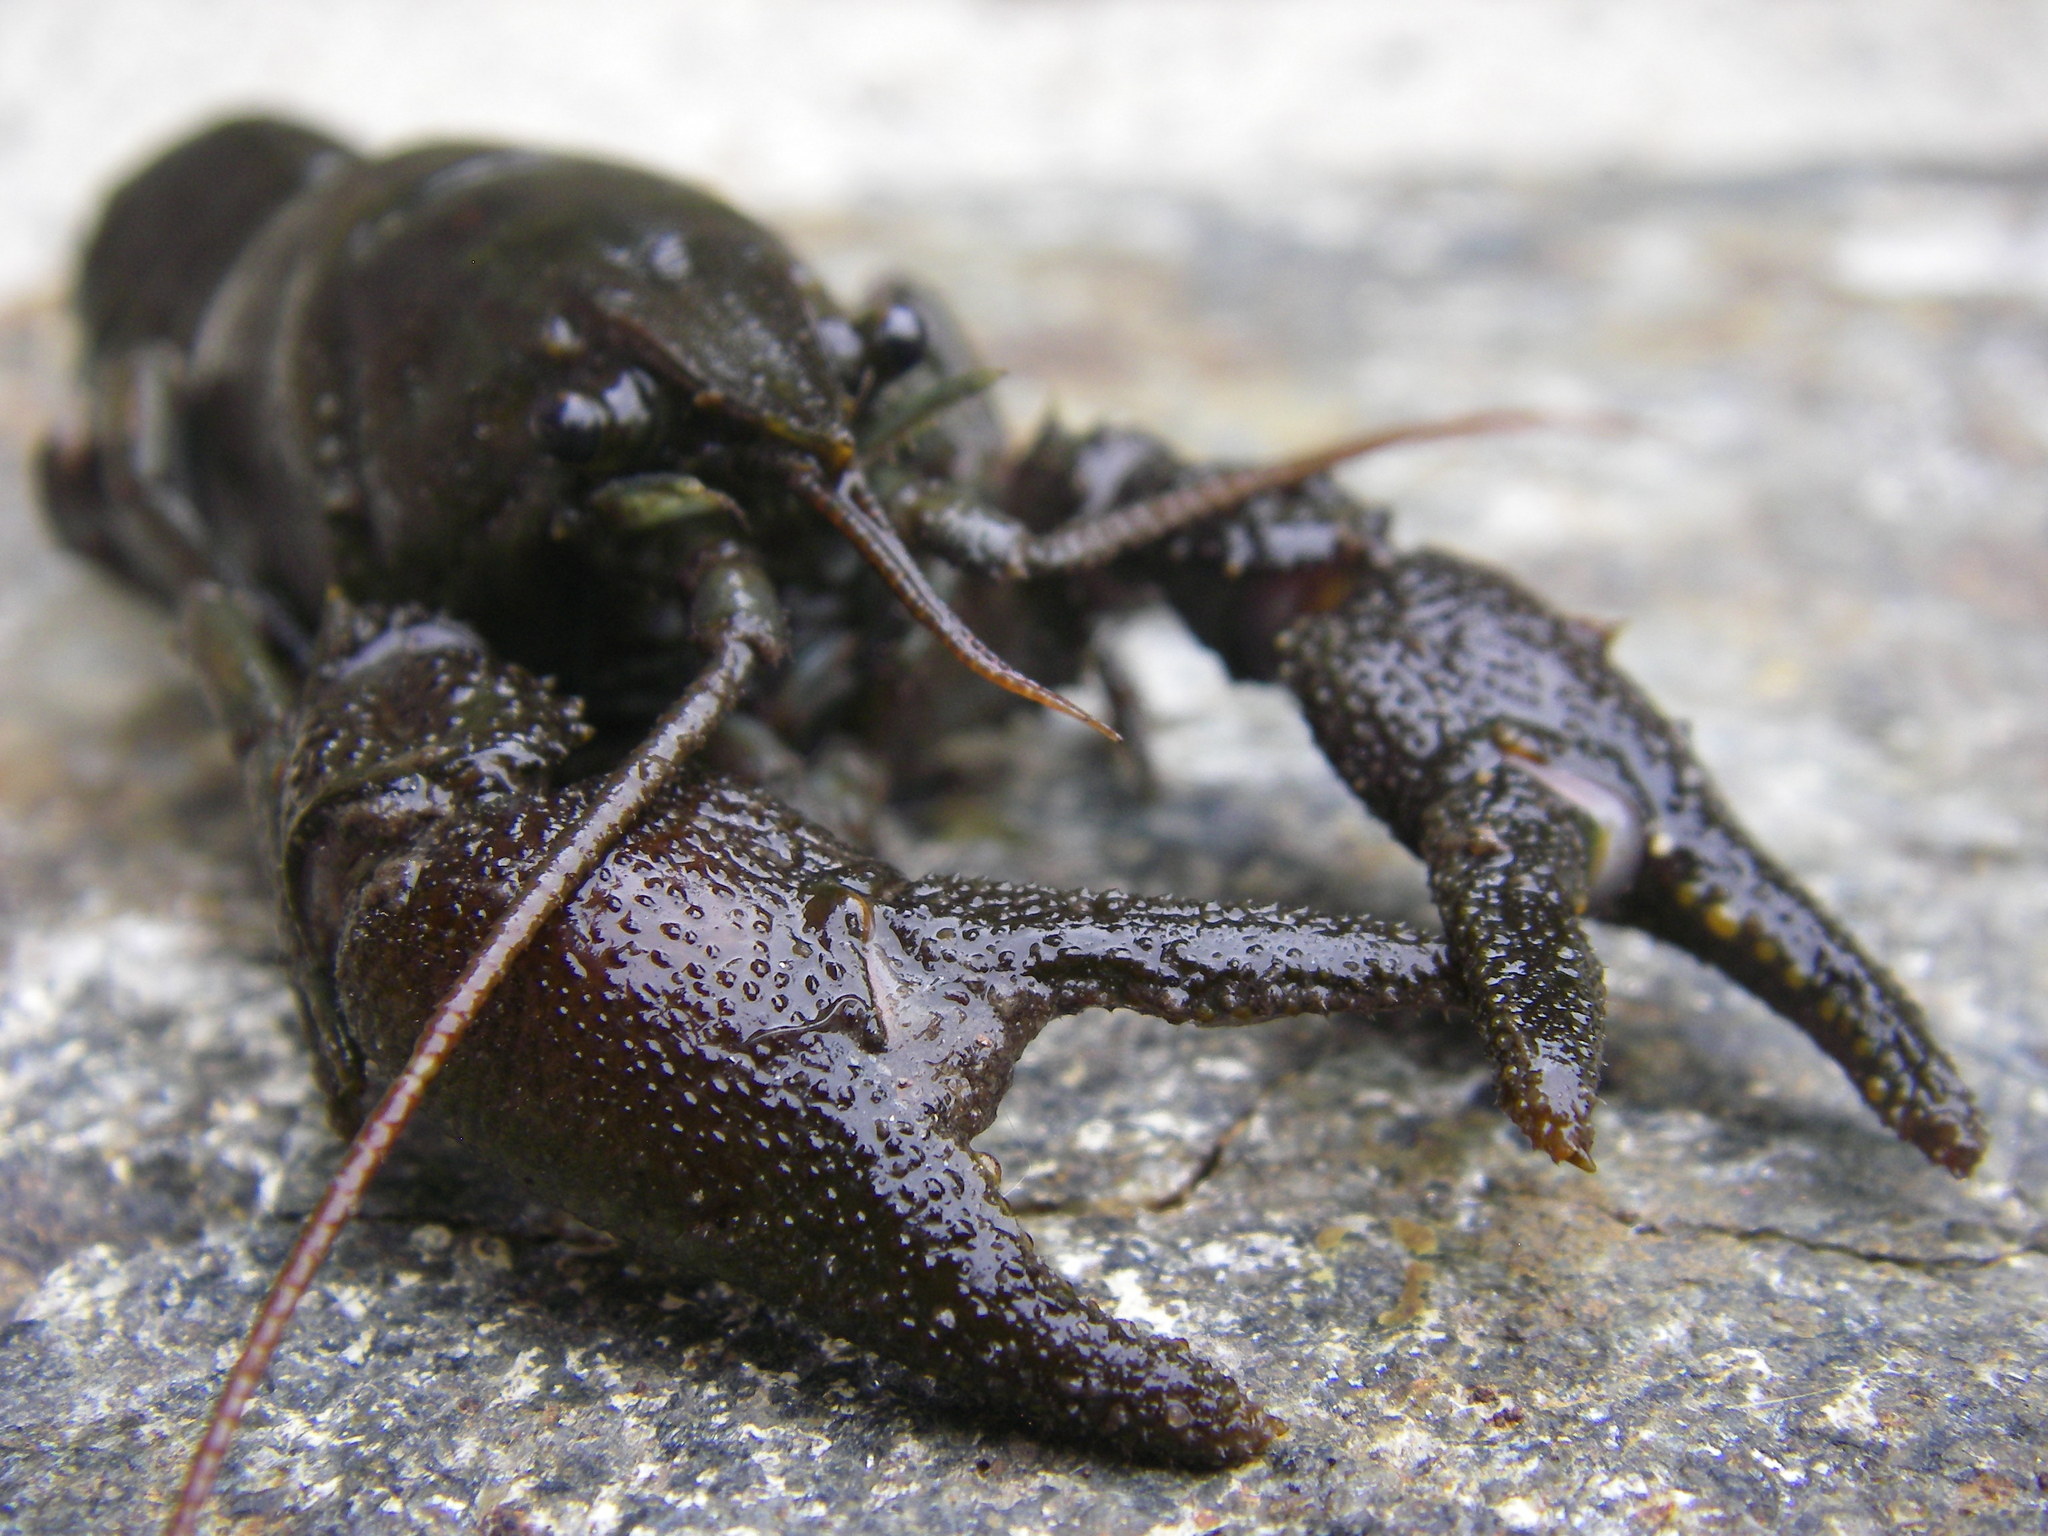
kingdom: Animalia
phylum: Arthropoda
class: Malacostraca
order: Decapoda
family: Astacidae
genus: Austropotamobius
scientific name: Austropotamobius pallipes
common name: White-clawed crayfish
